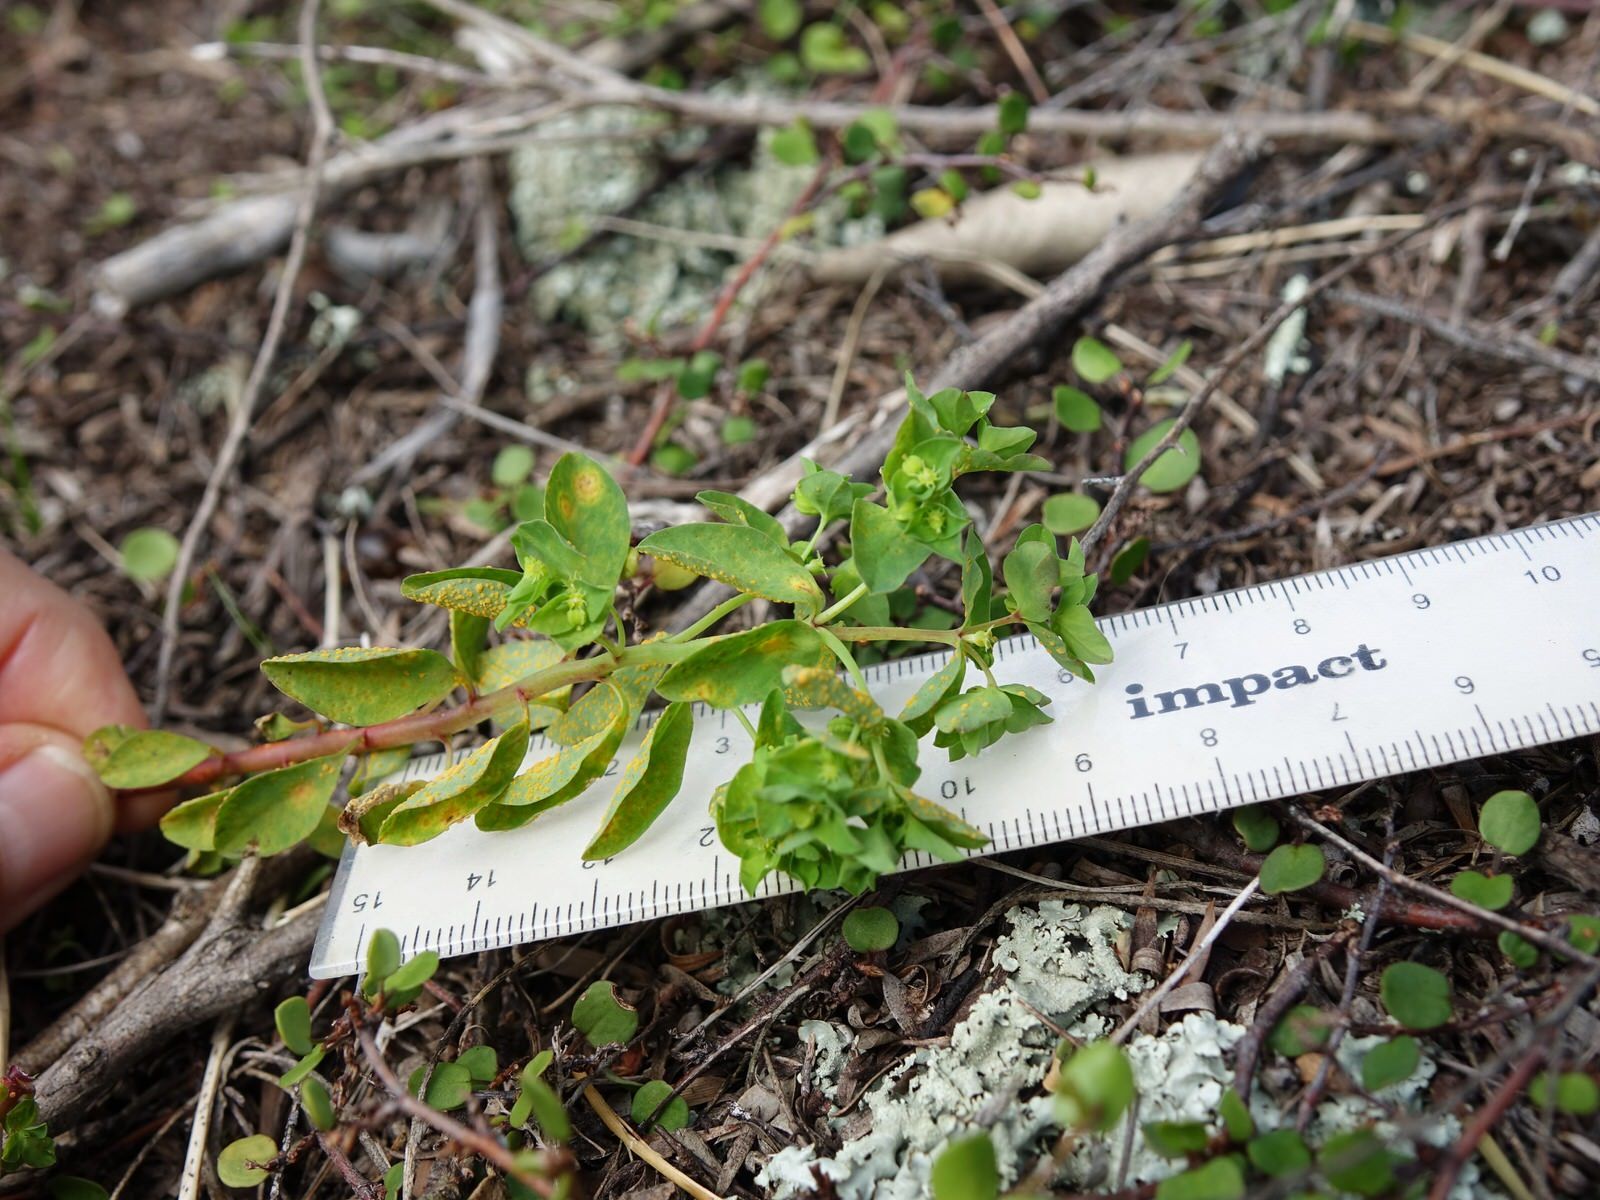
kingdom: Fungi
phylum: Basidiomycota
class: Pucciniomycetes
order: Pucciniales
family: Melampsoraceae
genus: Melampsora
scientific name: Melampsora euphorbiae
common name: Spurge rust
